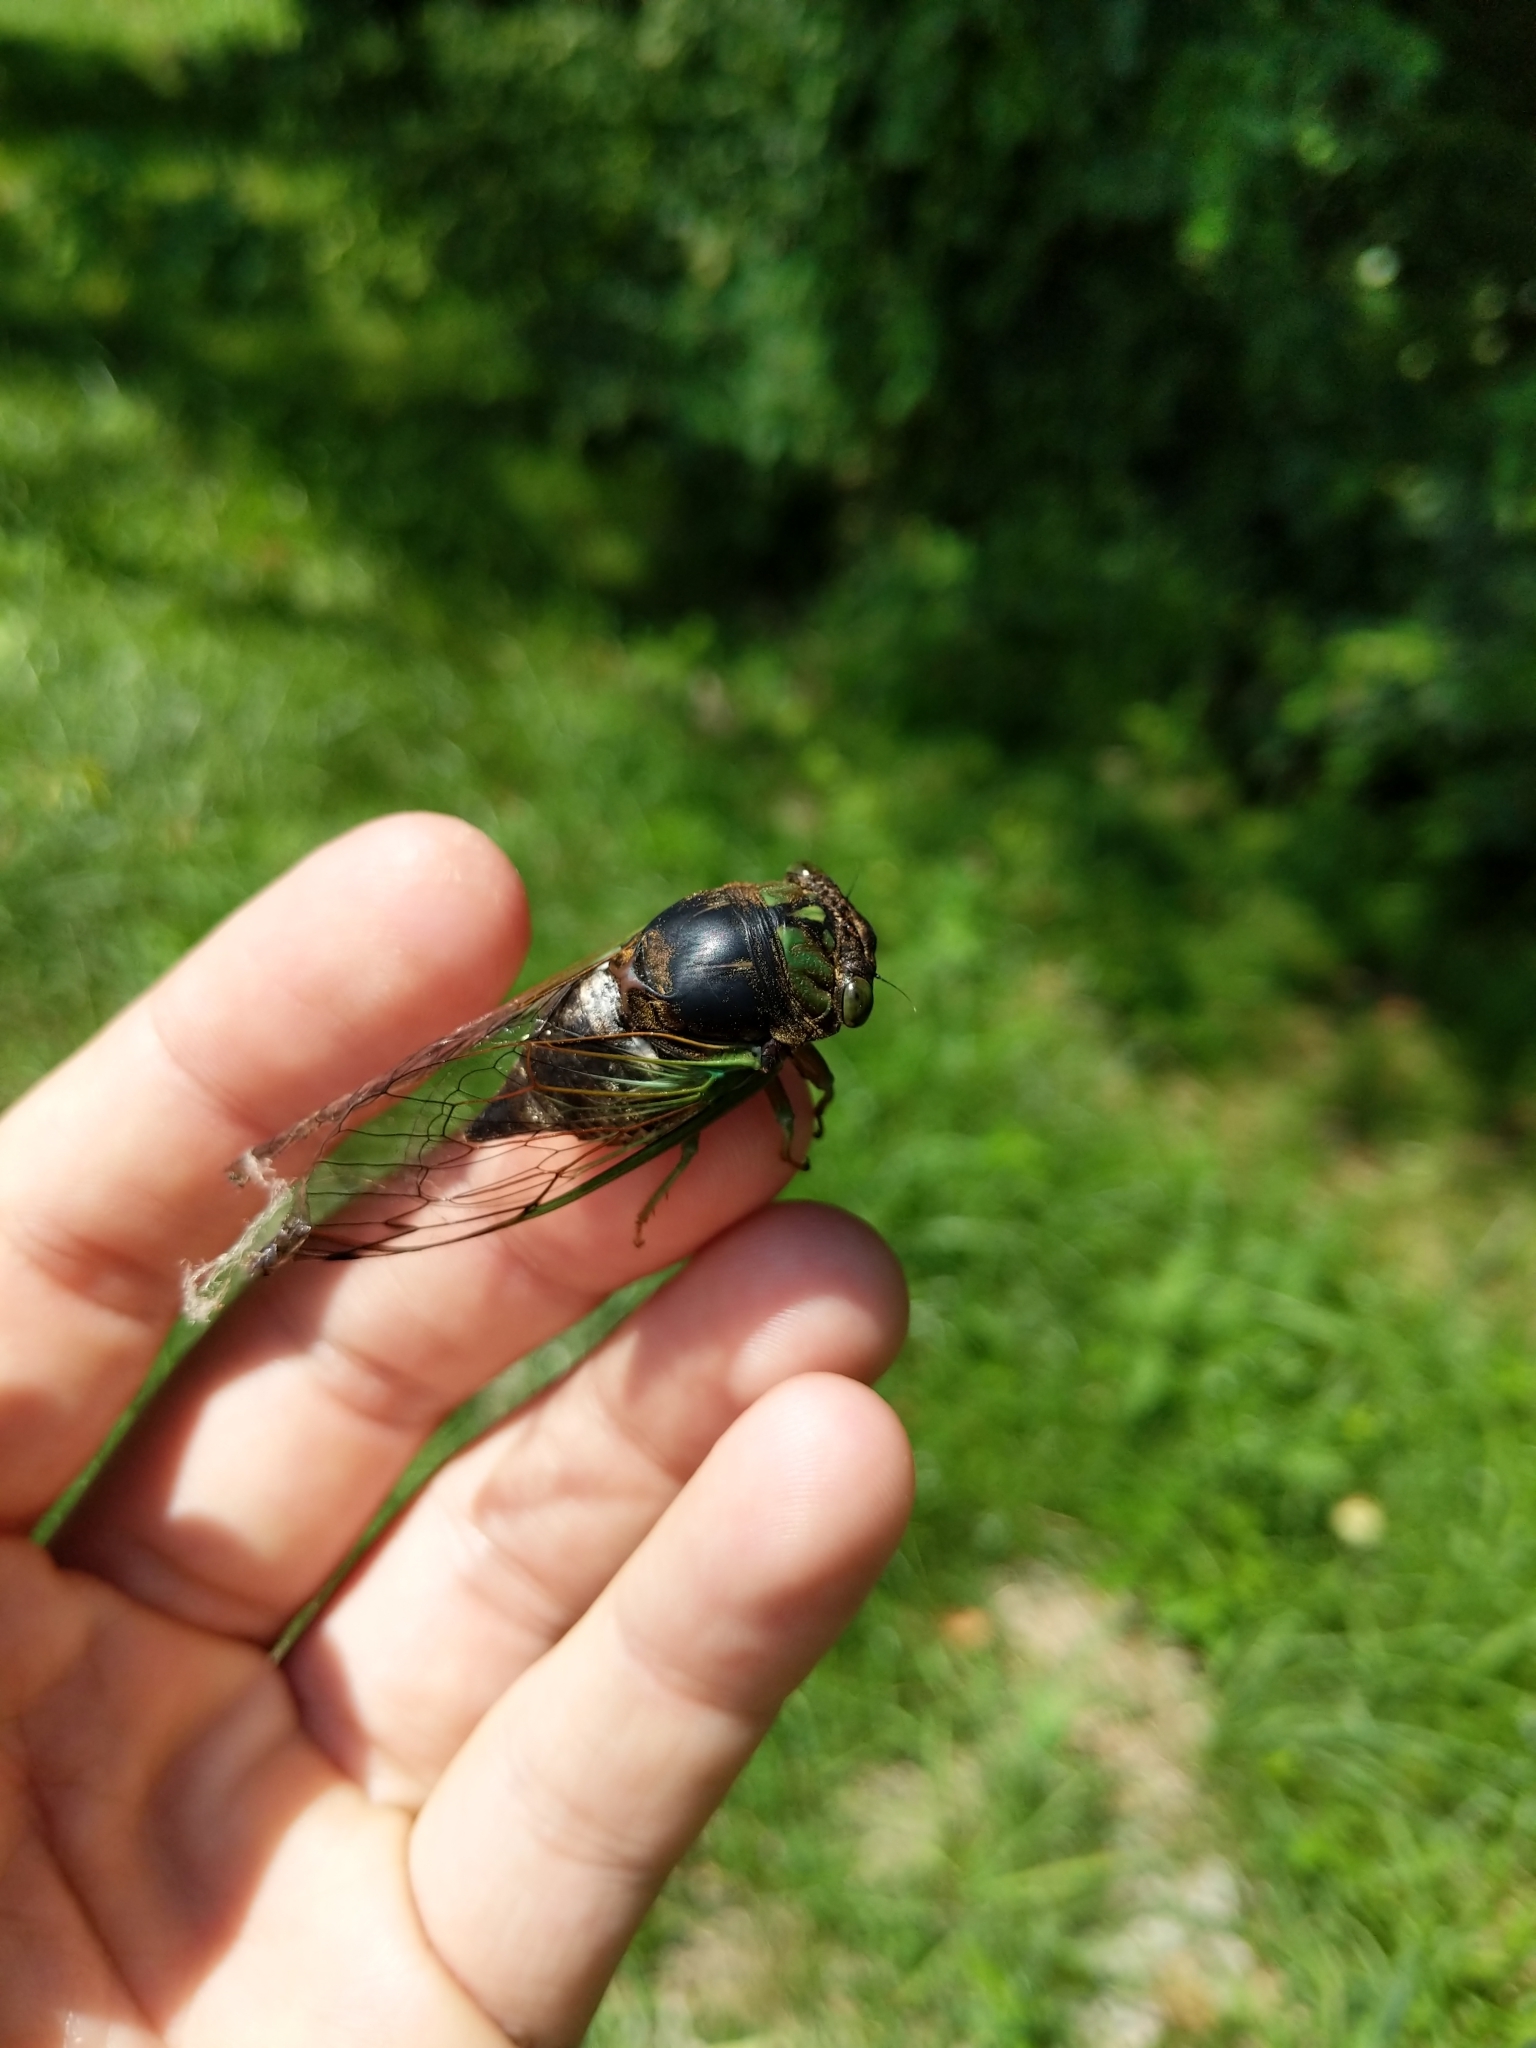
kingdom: Animalia
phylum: Arthropoda
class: Insecta
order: Hemiptera
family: Cicadidae
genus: Neotibicen
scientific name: Neotibicen tibicen
